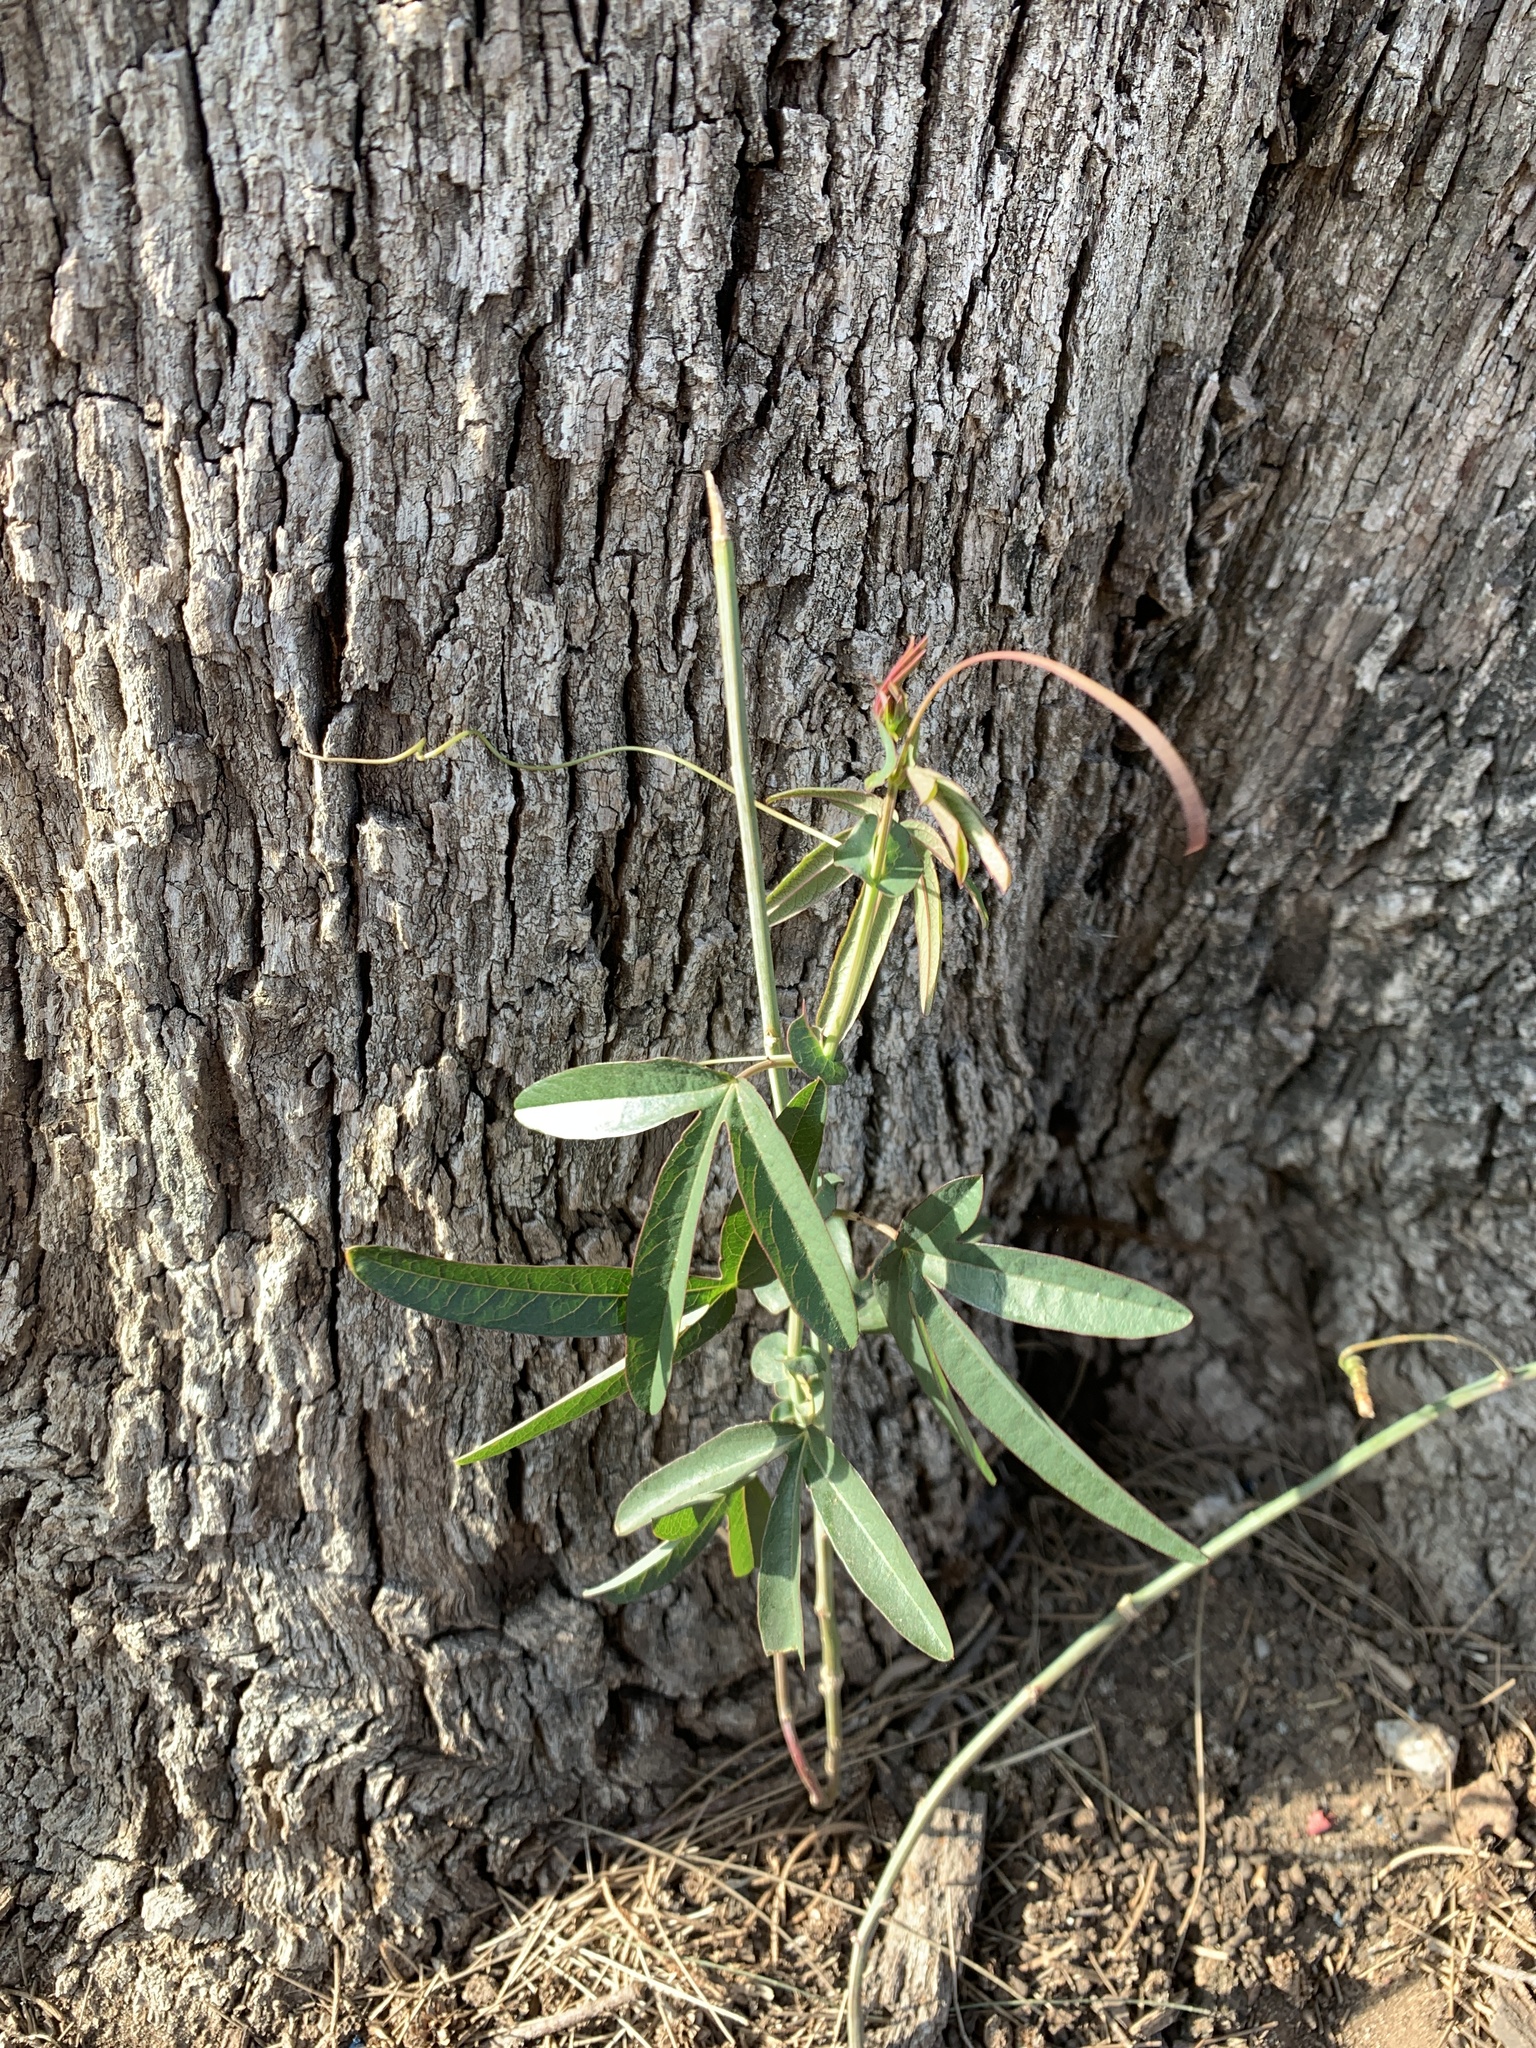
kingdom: Plantae
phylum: Tracheophyta
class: Magnoliopsida
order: Malpighiales
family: Passifloraceae
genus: Passiflora
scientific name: Passiflora caerulea
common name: Blue passionflower
